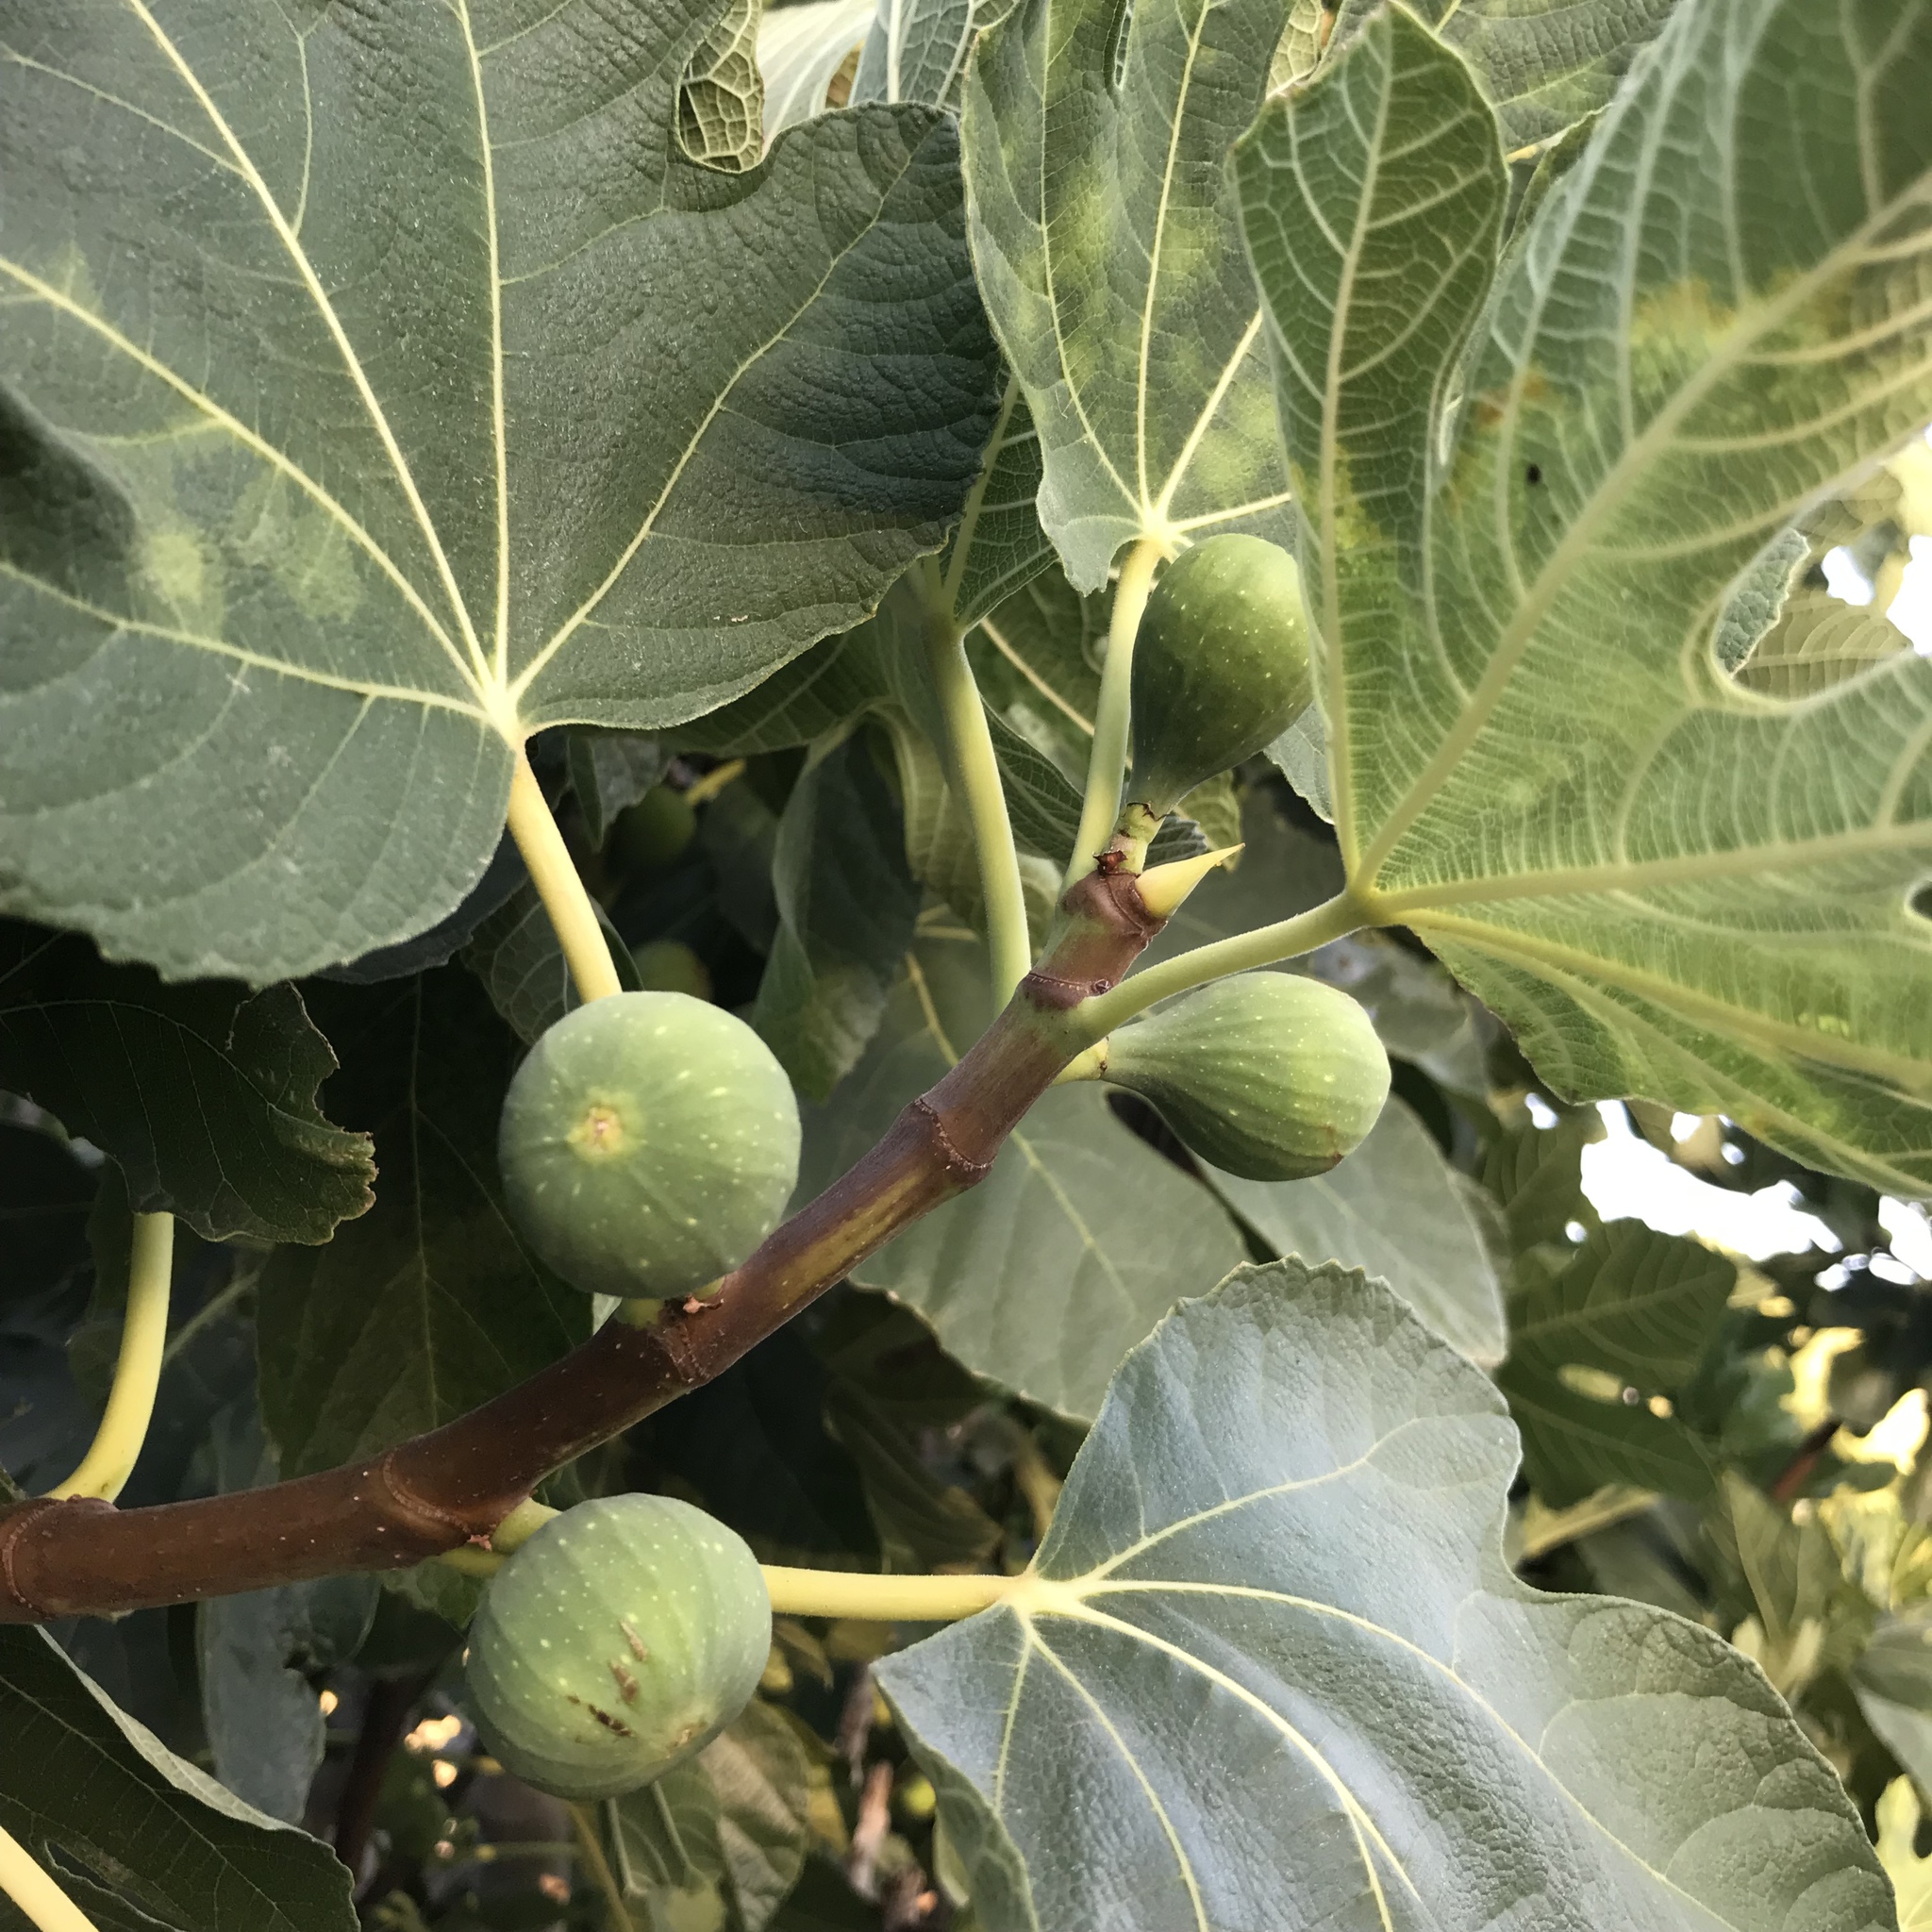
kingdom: Plantae
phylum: Tracheophyta
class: Magnoliopsida
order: Rosales
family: Moraceae
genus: Ficus
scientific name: Ficus carica
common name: Fig
